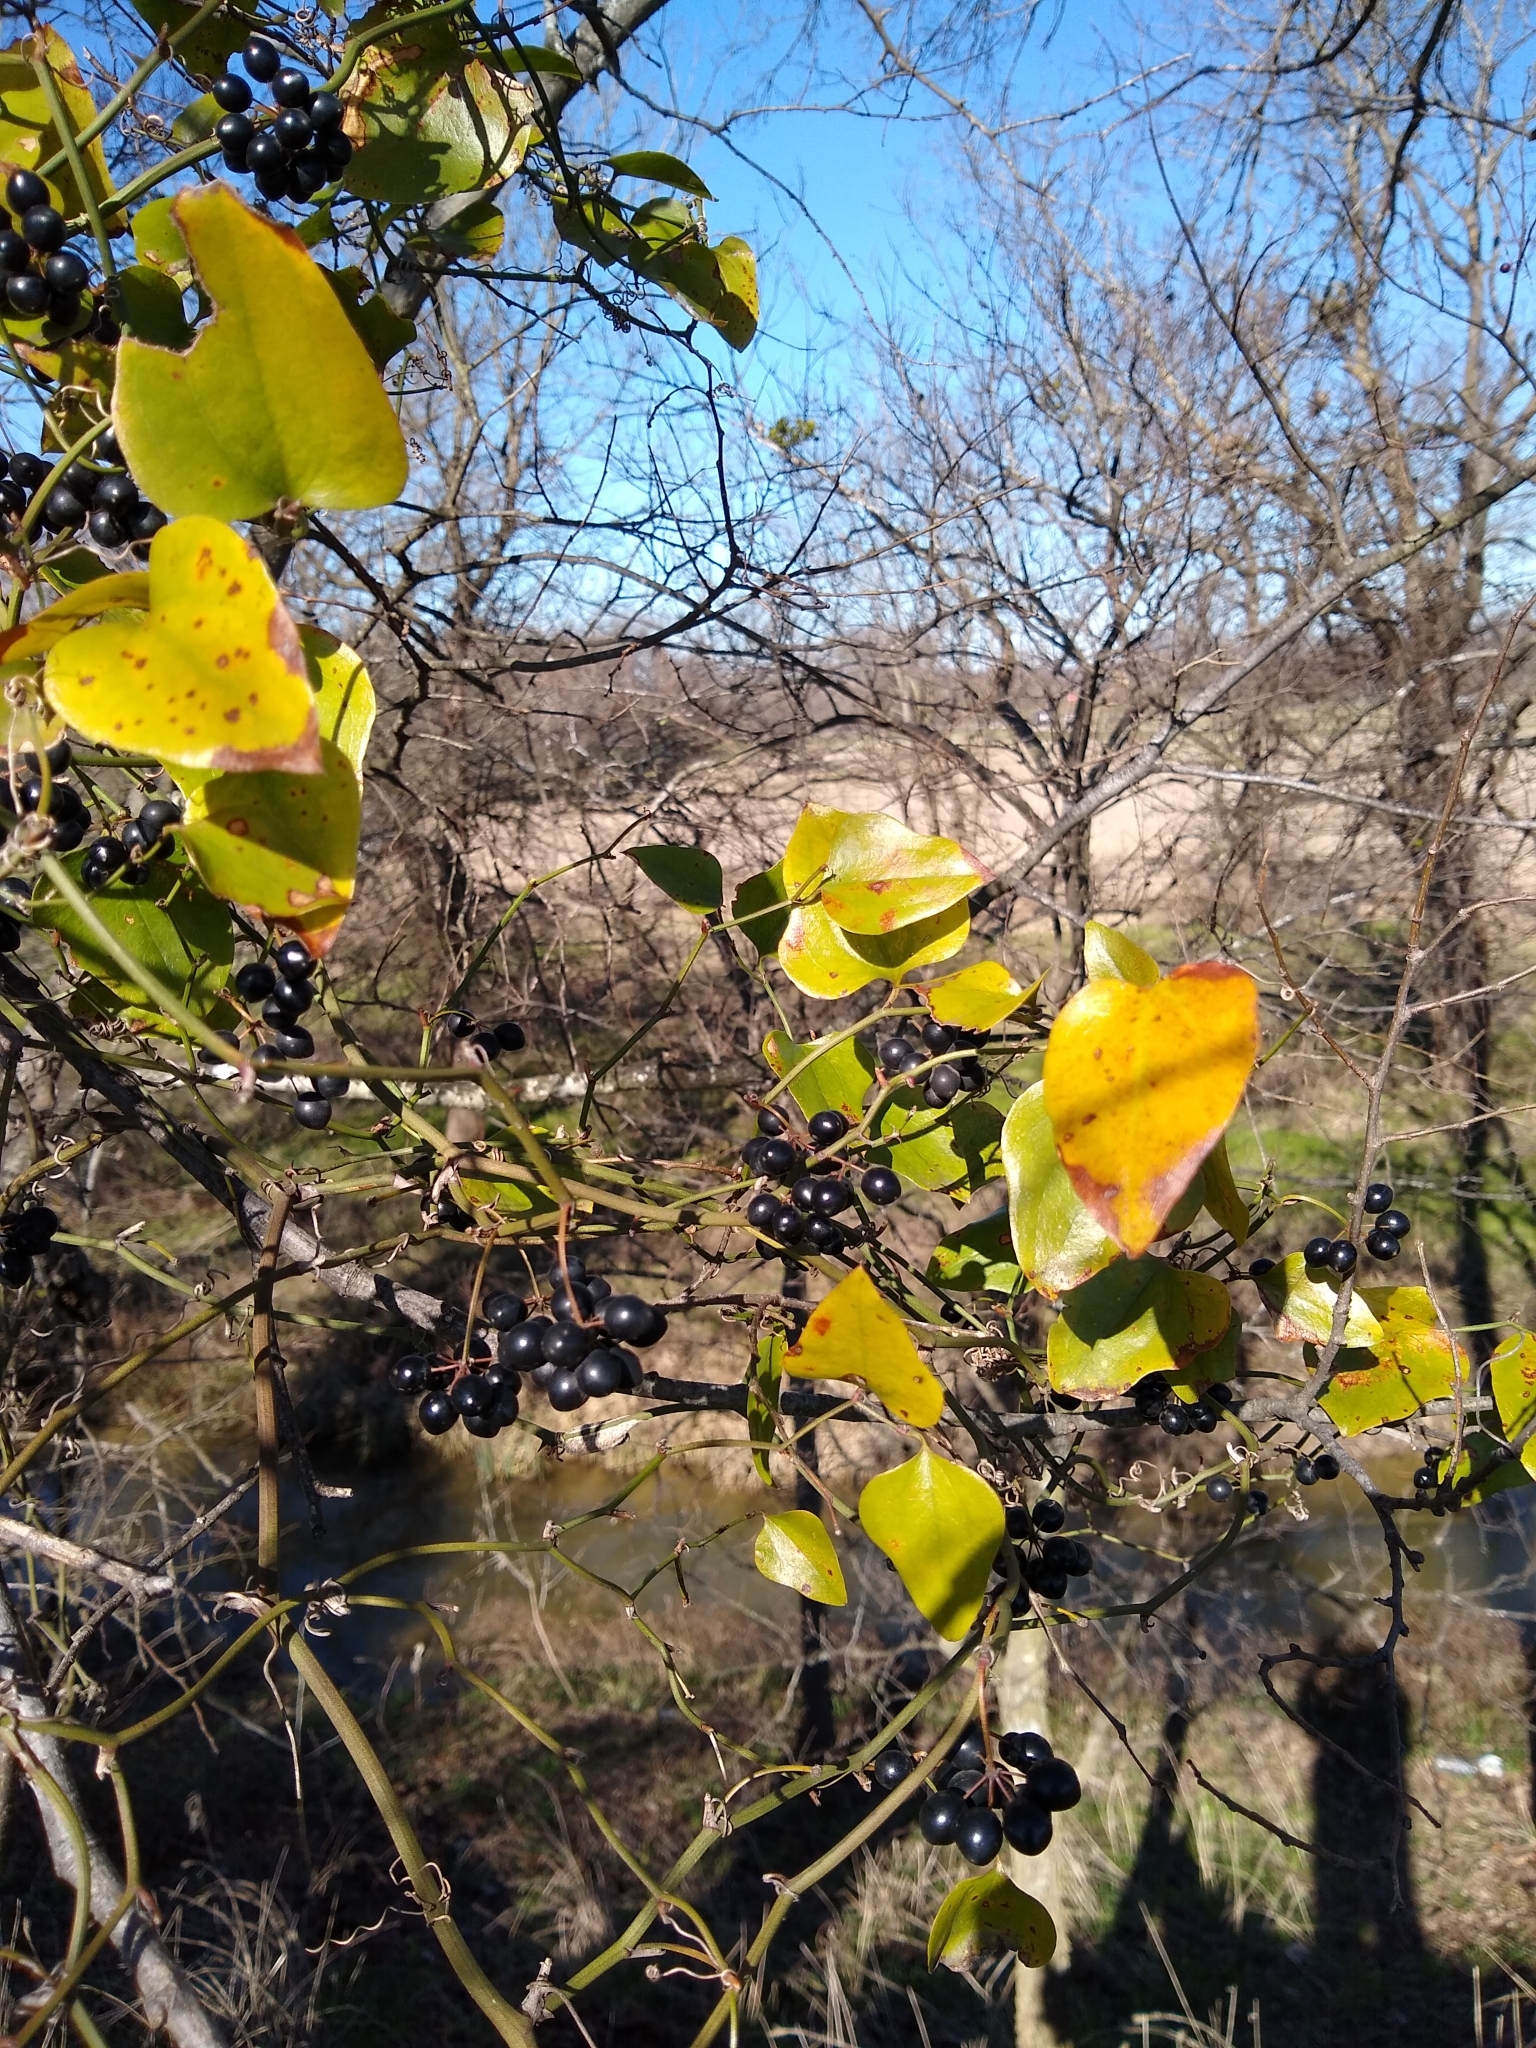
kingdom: Plantae
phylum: Tracheophyta
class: Liliopsida
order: Liliales
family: Smilacaceae
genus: Smilax
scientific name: Smilax bona-nox
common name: Catbrier
